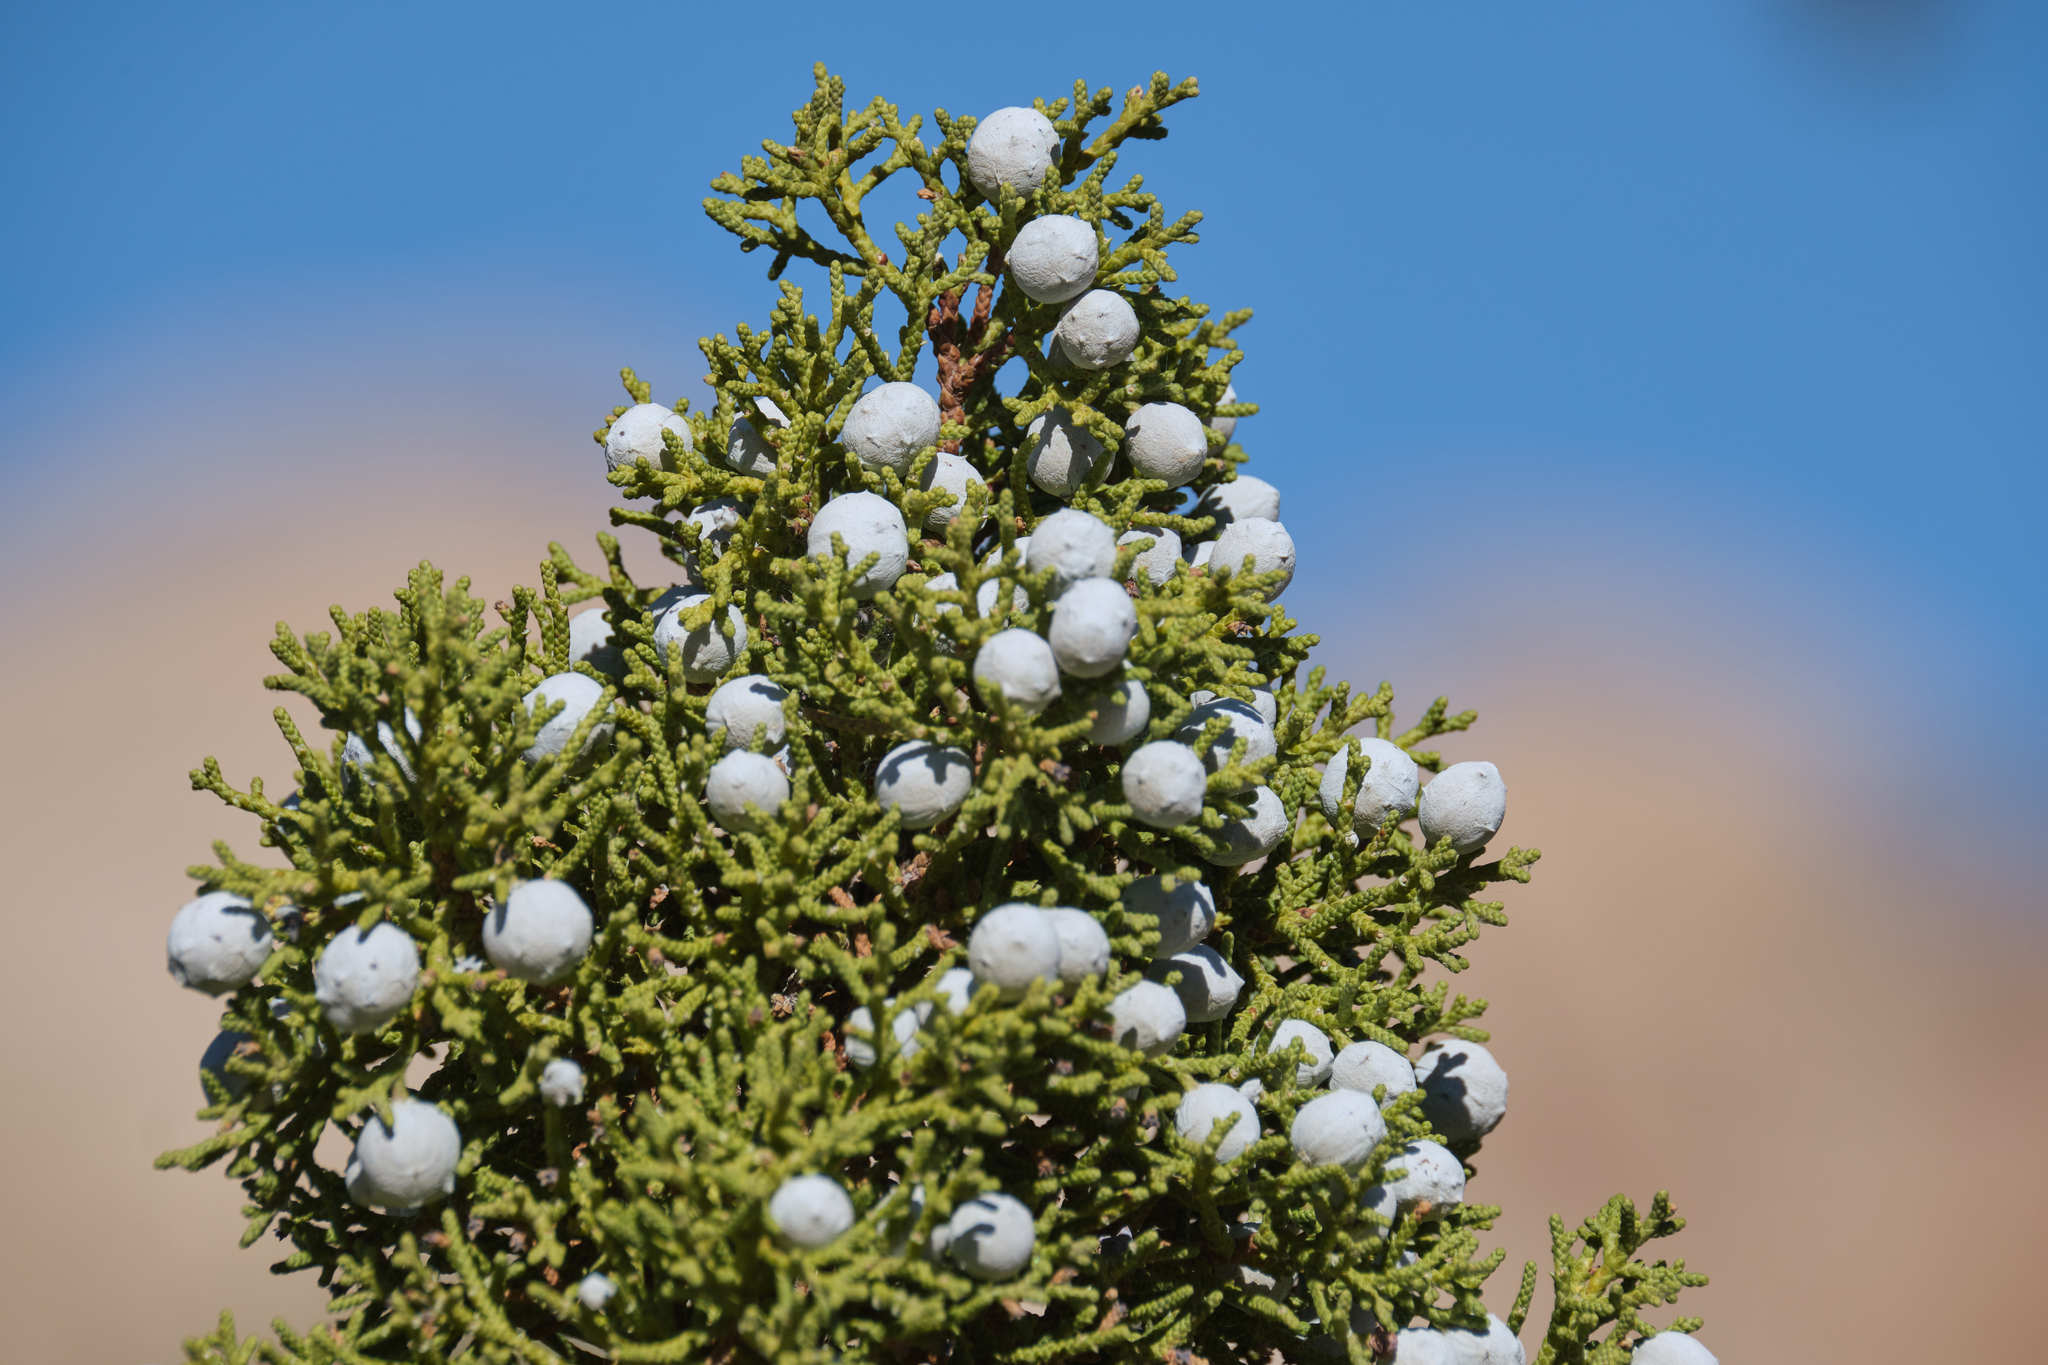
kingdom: Plantae
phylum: Tracheophyta
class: Pinopsida
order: Pinales
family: Cupressaceae
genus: Juniperus
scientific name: Juniperus californica
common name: California juniper
